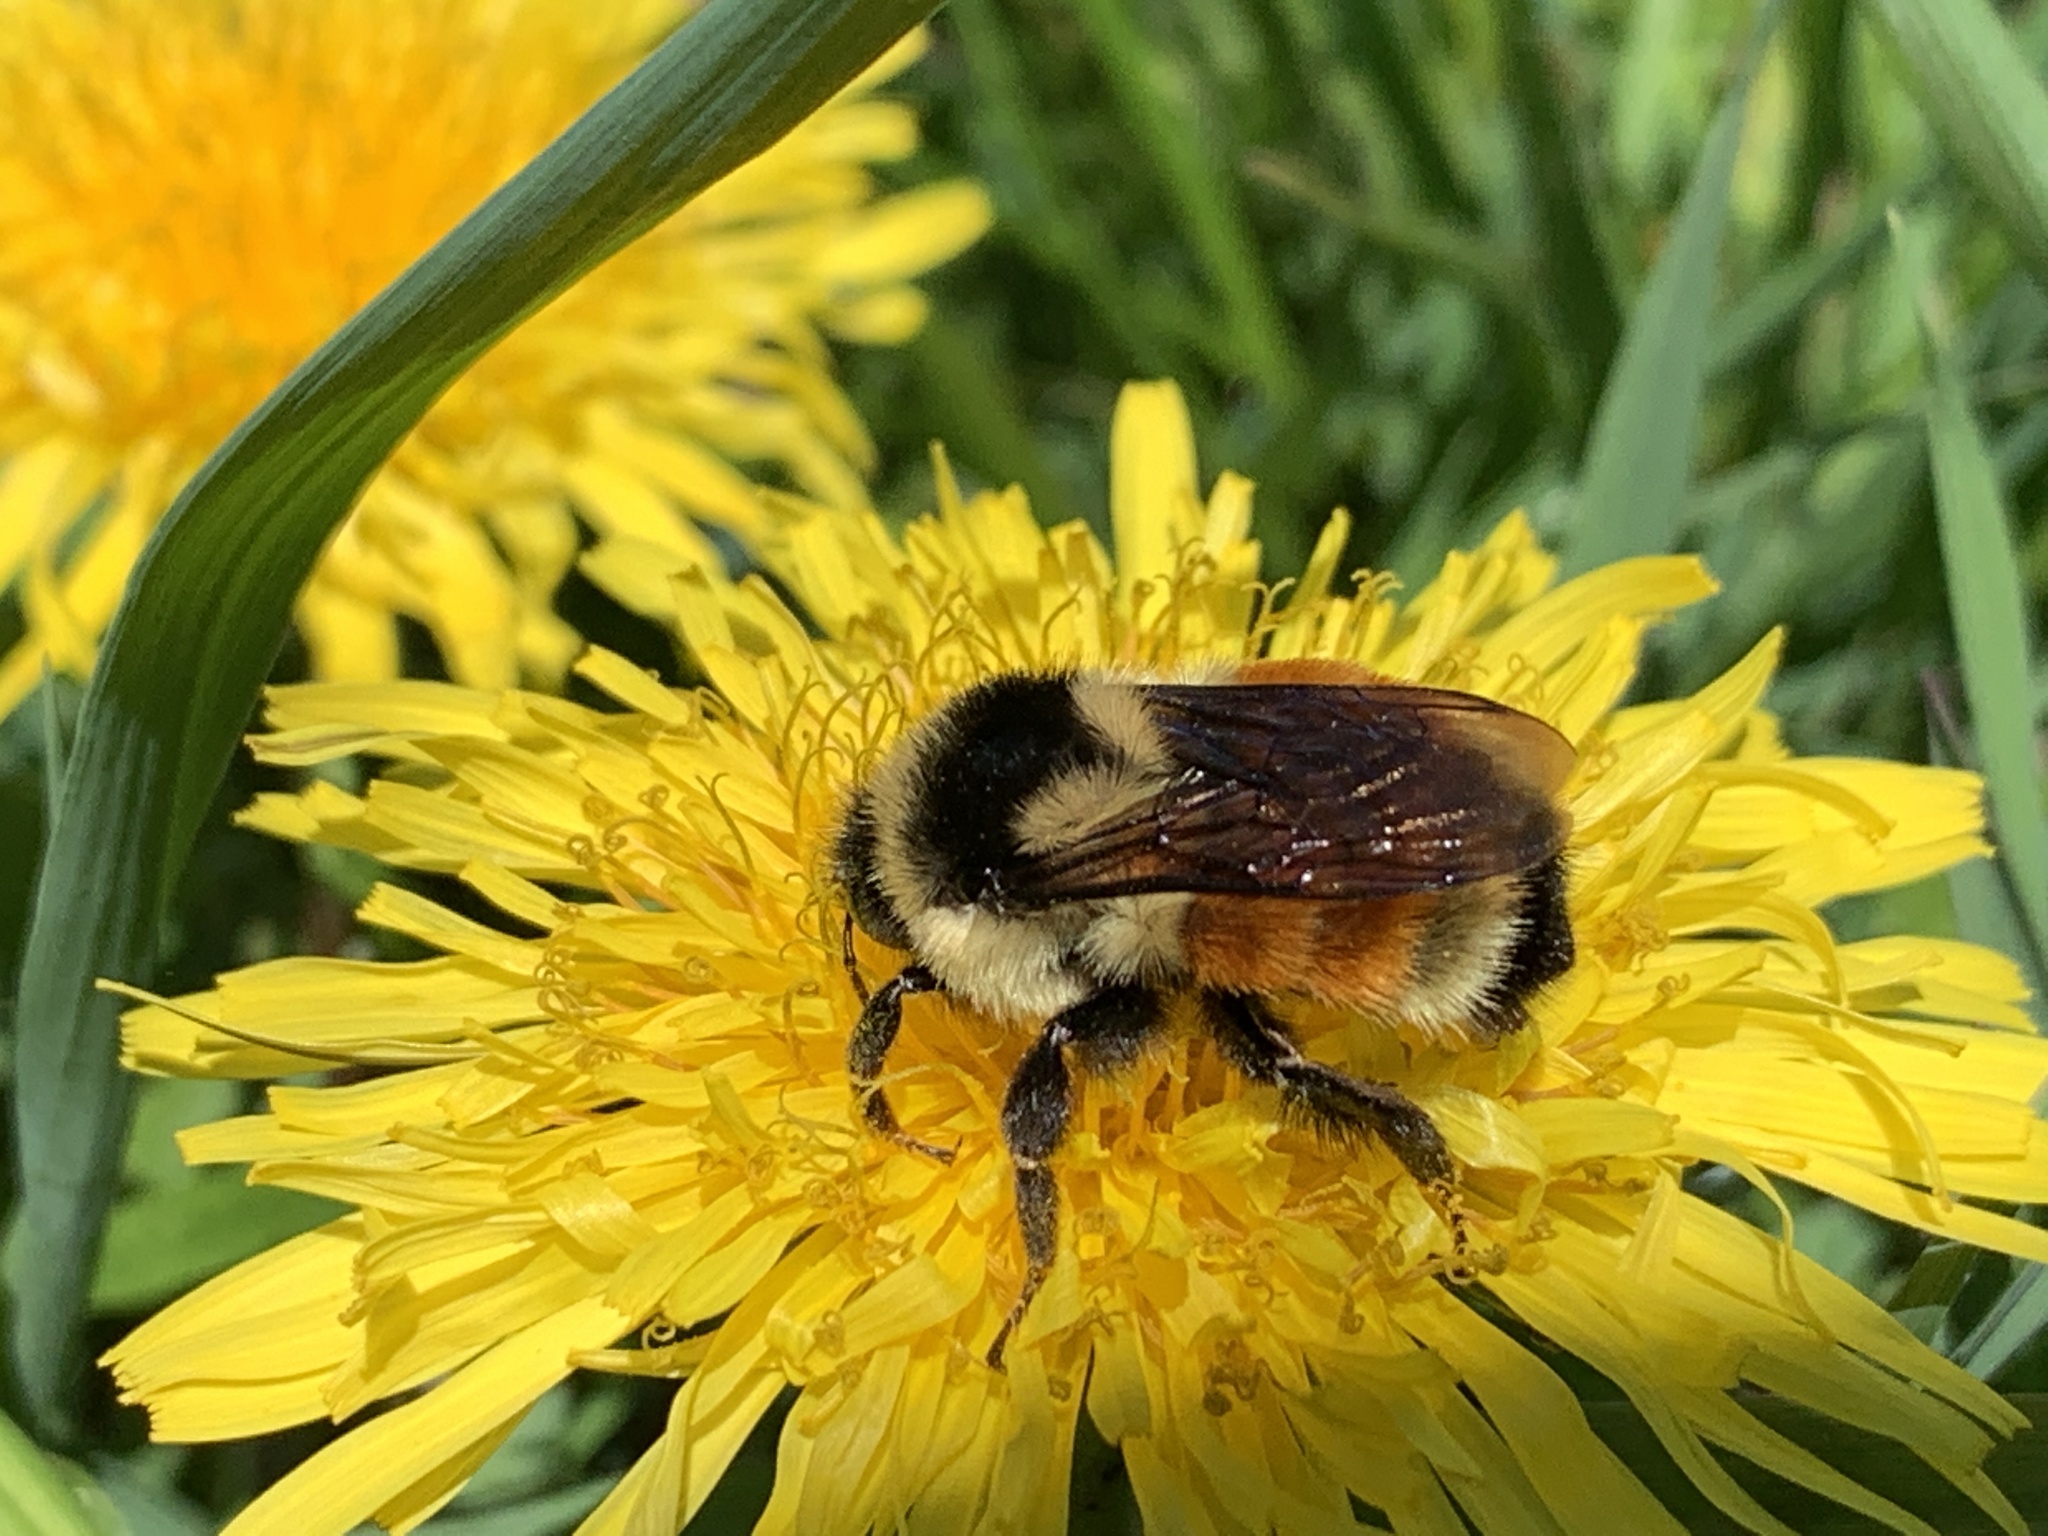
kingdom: Animalia
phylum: Arthropoda
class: Insecta
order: Hymenoptera
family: Apidae
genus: Bombus
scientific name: Bombus ternarius
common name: Tri-colored bumble bee
